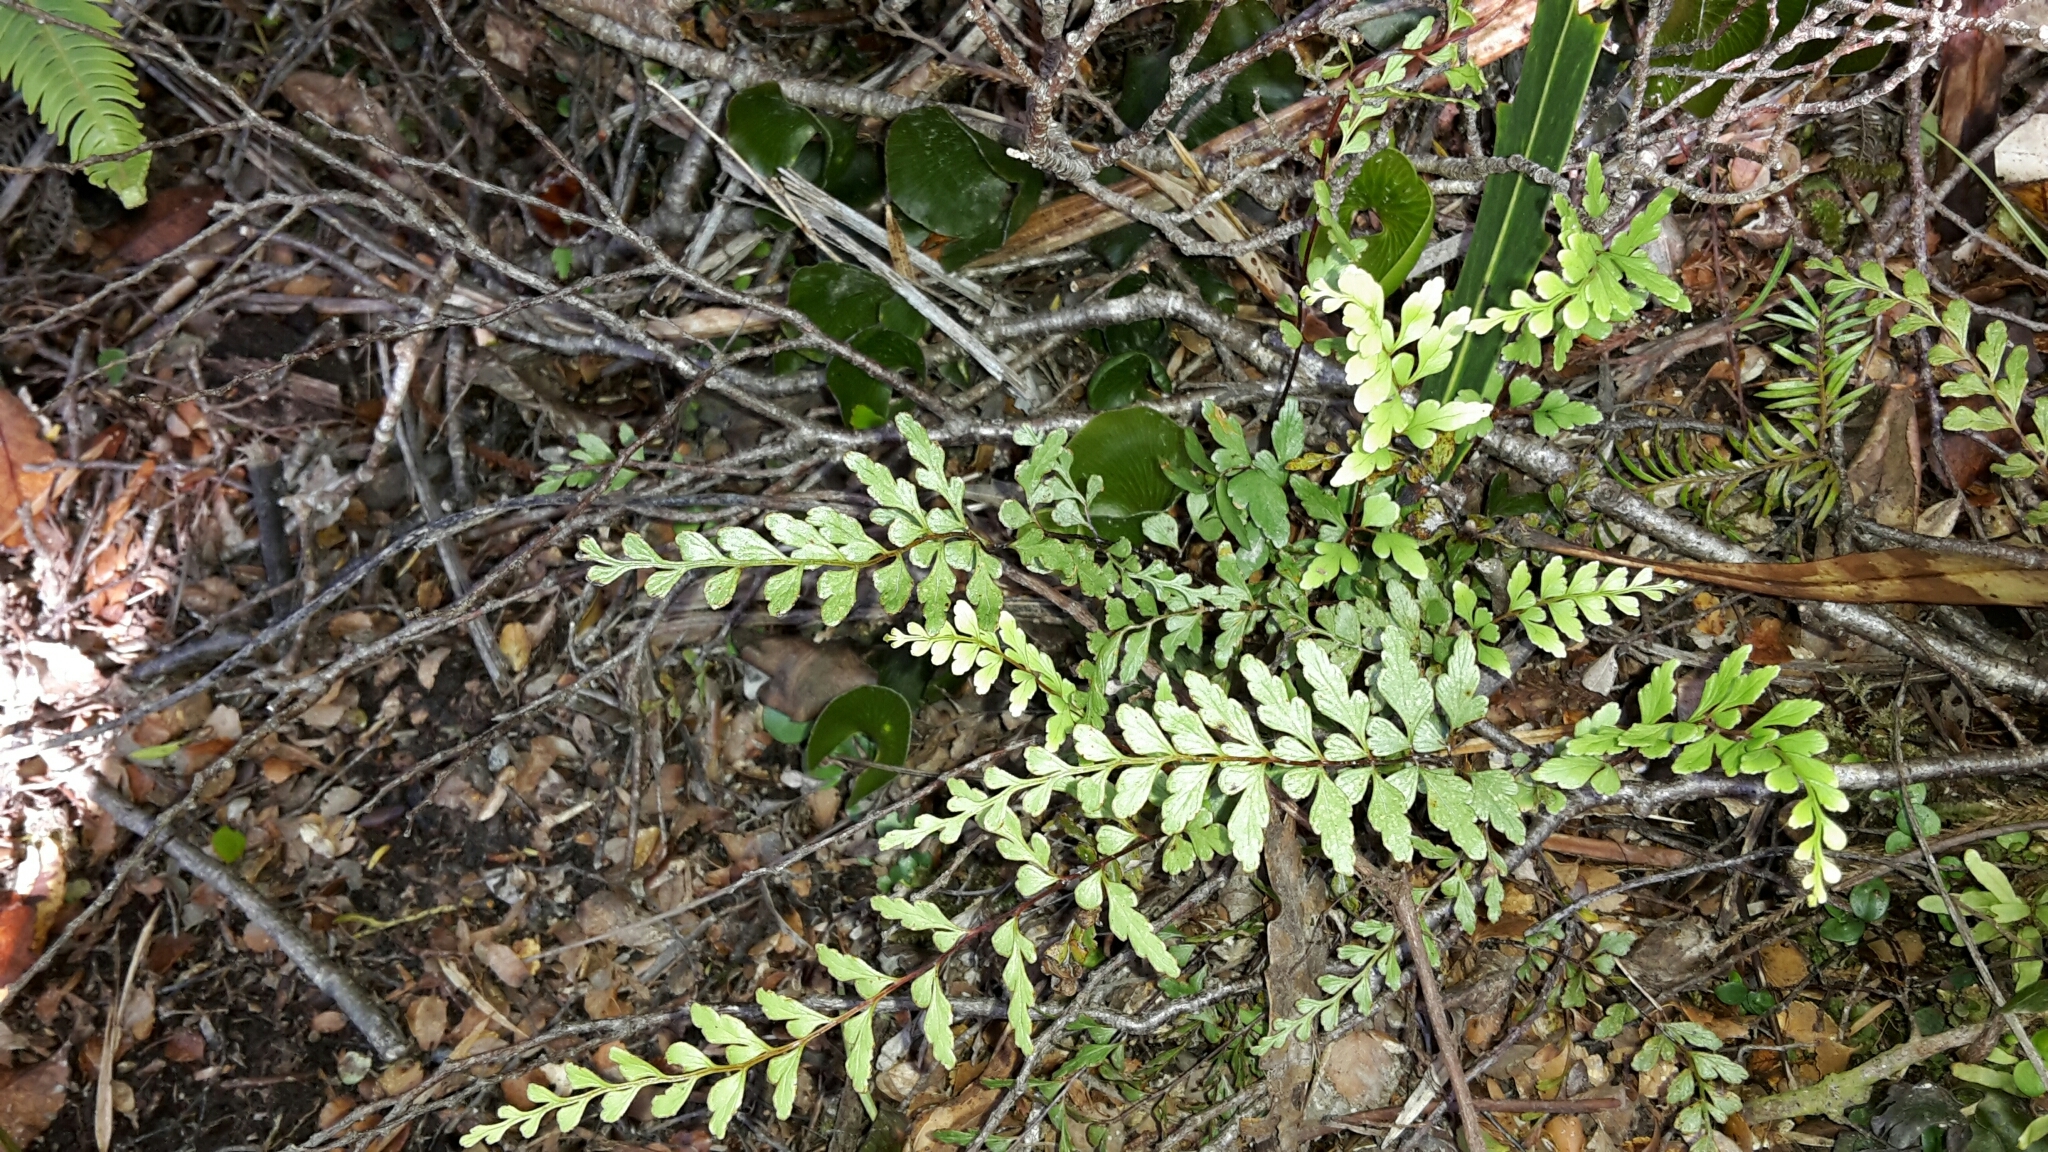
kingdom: Plantae
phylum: Tracheophyta
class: Polypodiopsida
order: Polypodiales
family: Lindsaeaceae
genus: Lindsaea
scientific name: Lindsaea trichomanoides
